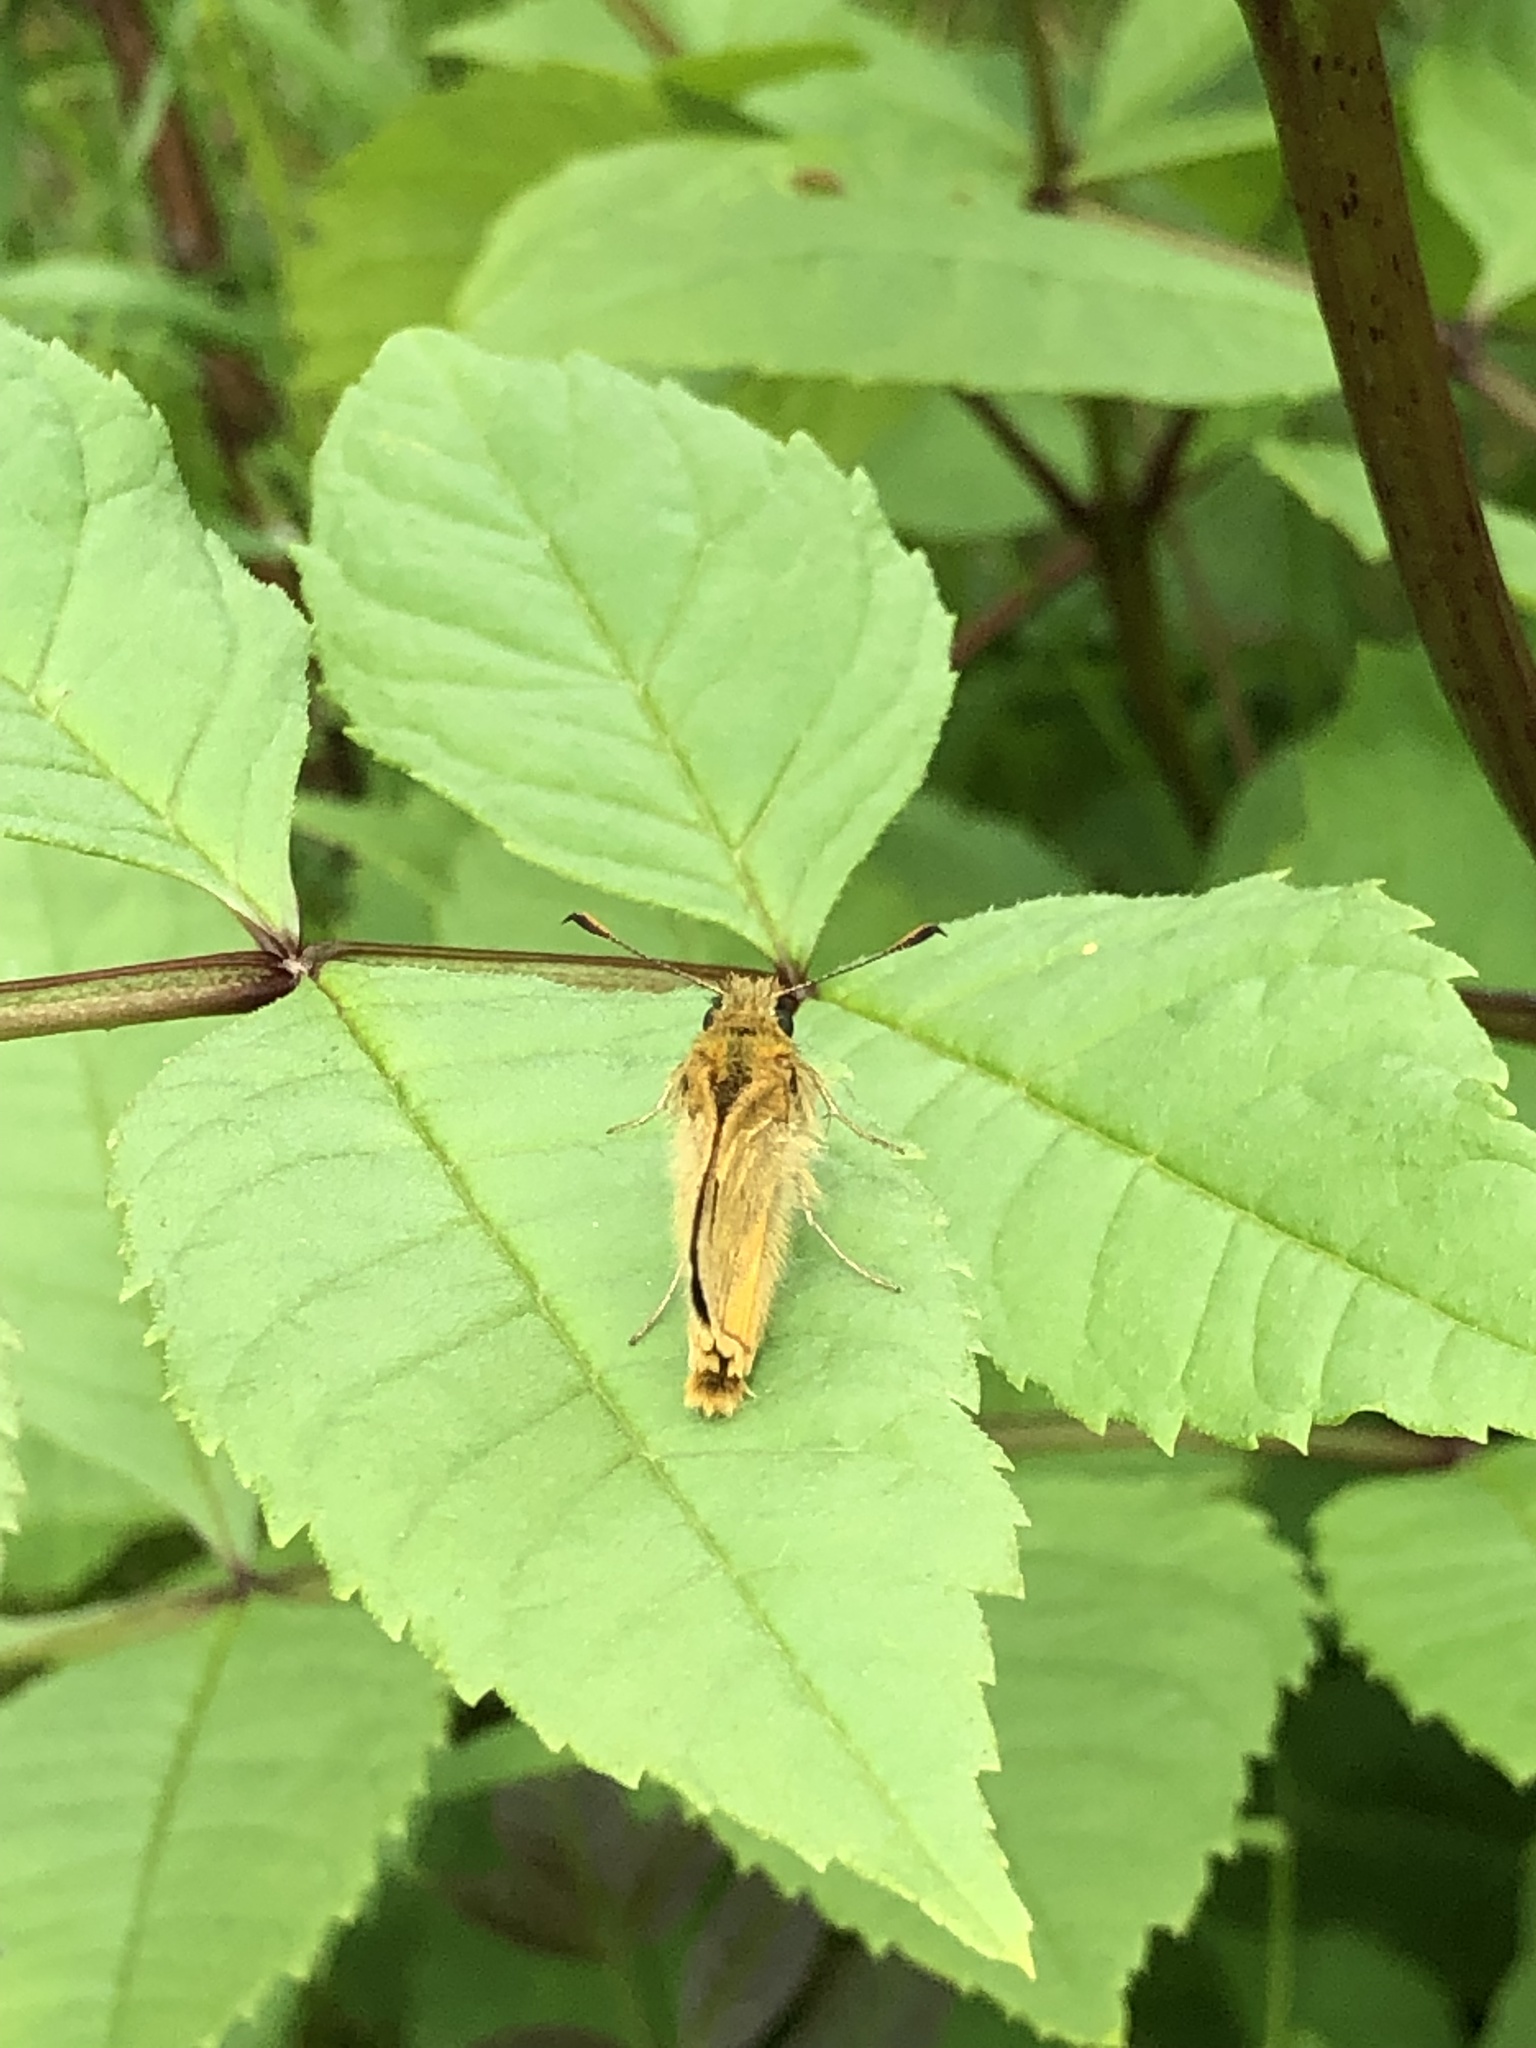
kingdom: Animalia
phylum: Arthropoda
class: Insecta
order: Lepidoptera
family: Hesperiidae
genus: Ochlodes
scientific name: Ochlodes venata
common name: Large skipper
